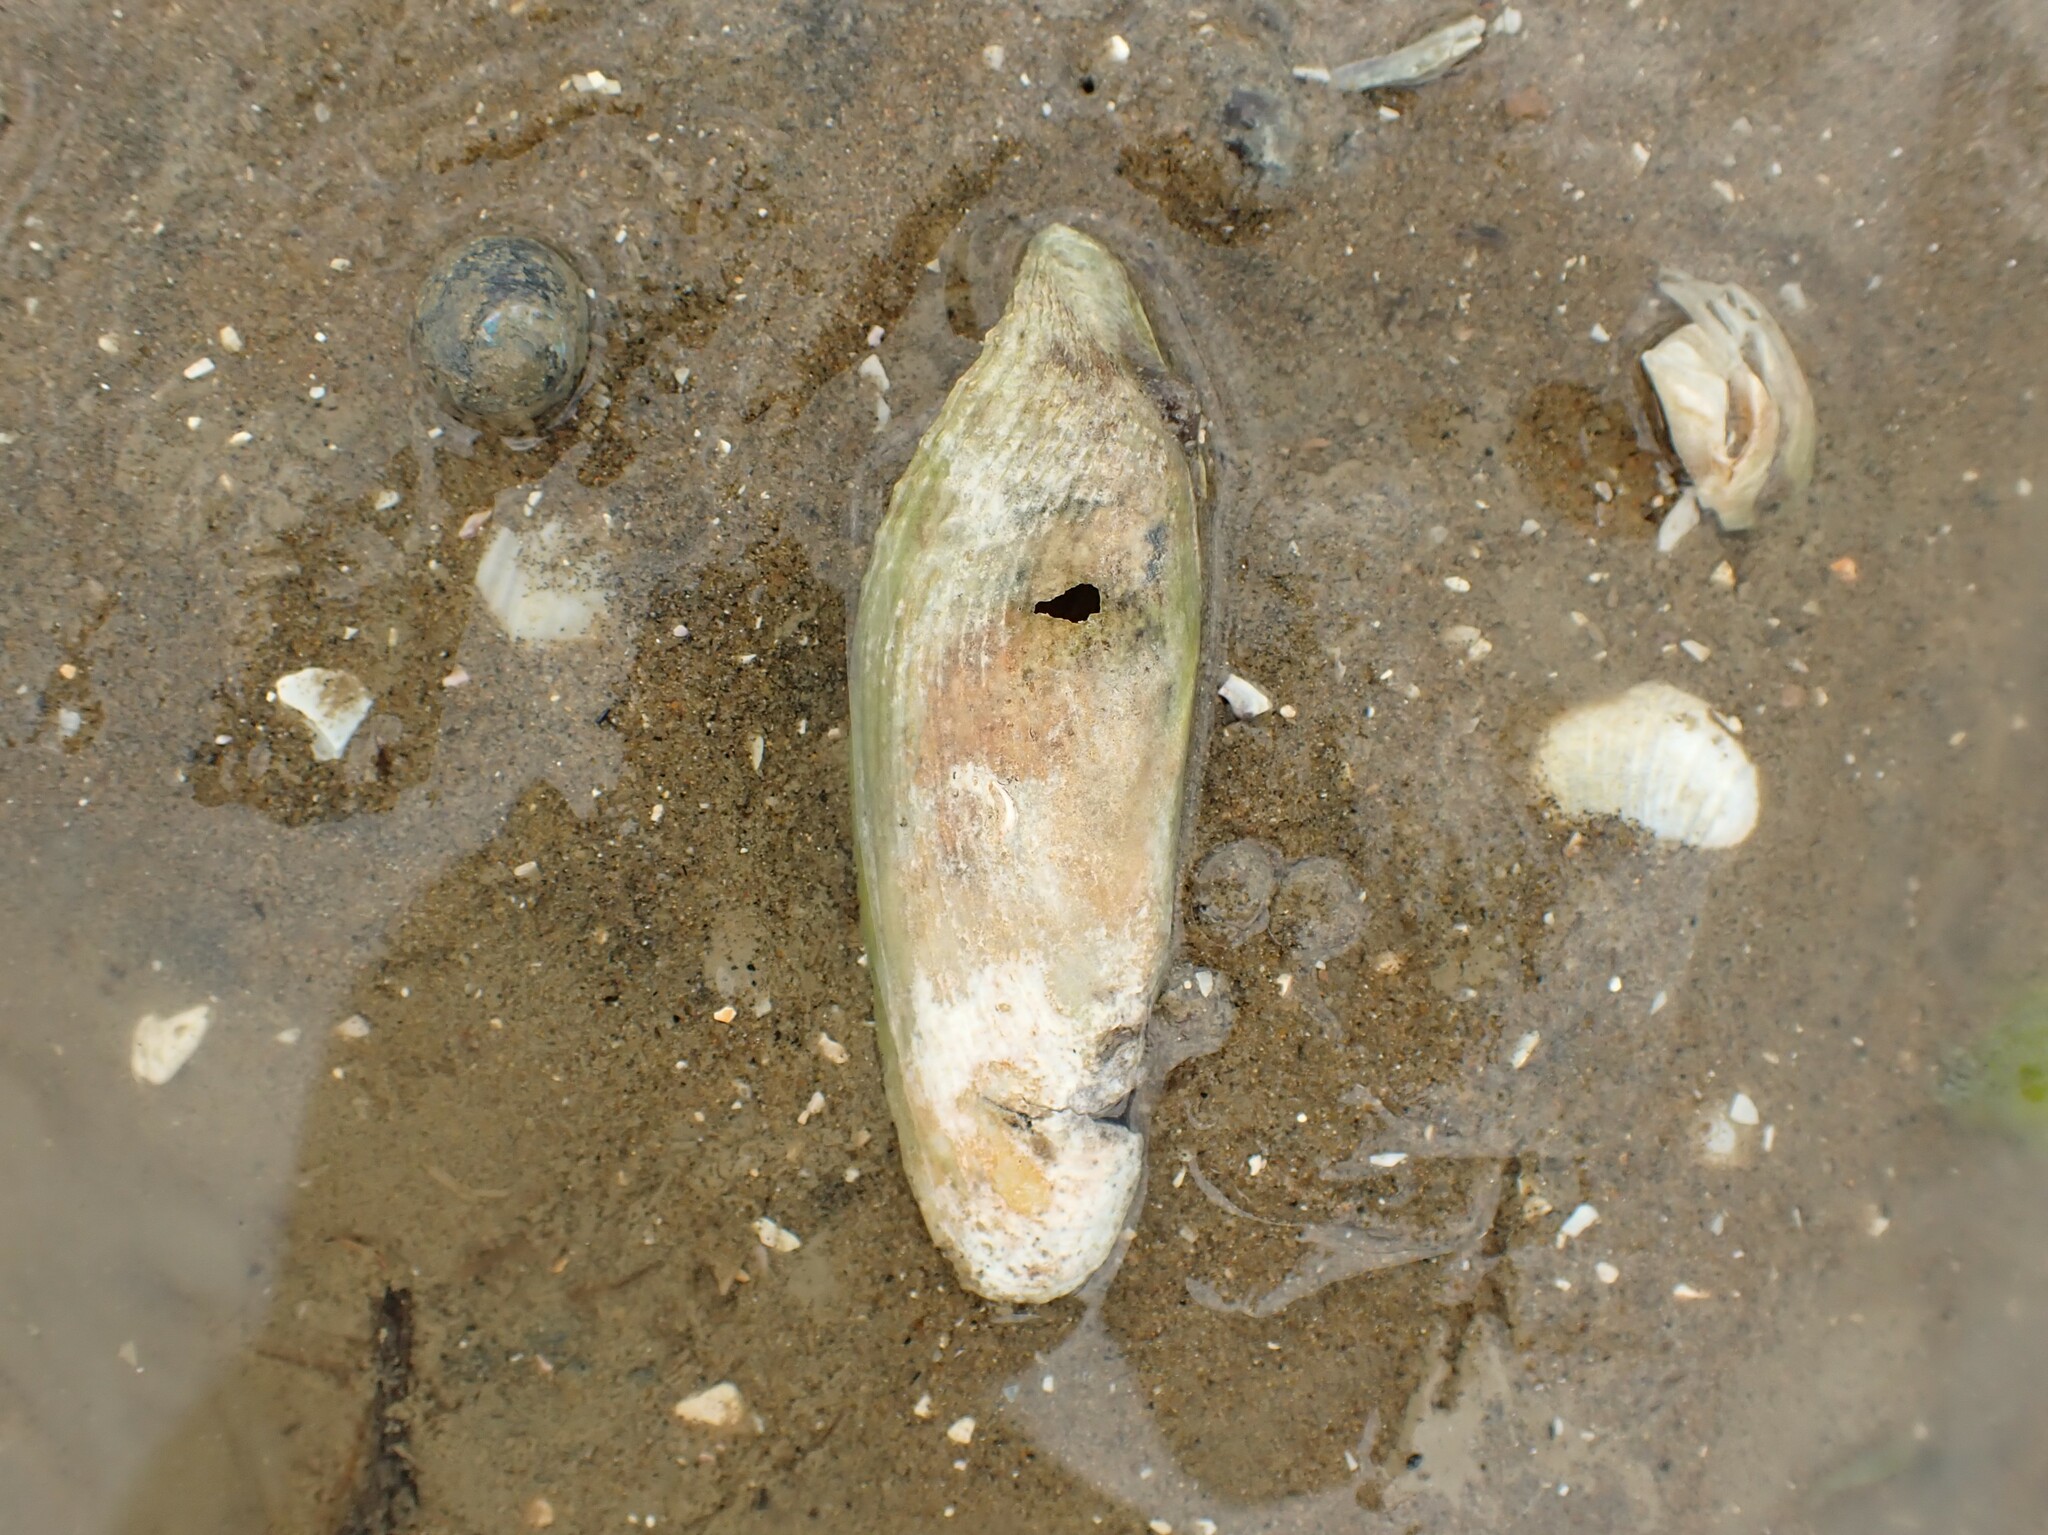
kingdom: Animalia
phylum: Mollusca
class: Bivalvia
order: Myida
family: Pholadidae
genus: Barnea
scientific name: Barnea similis
